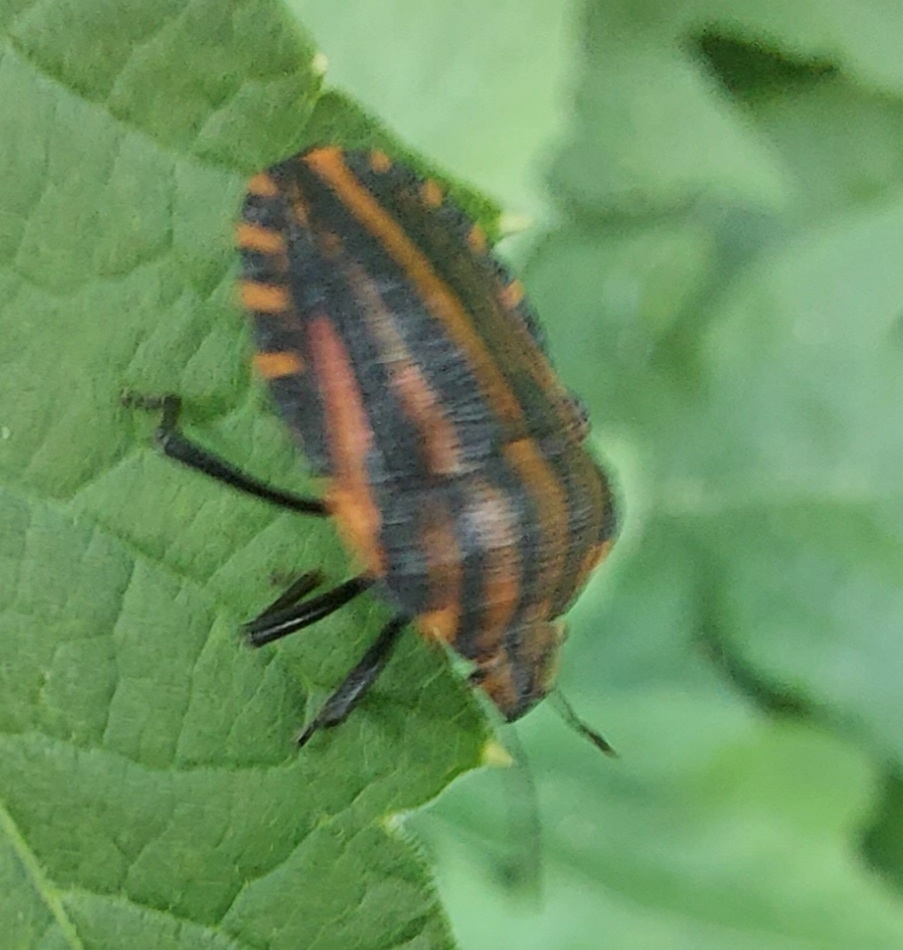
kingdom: Animalia
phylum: Arthropoda
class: Insecta
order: Hemiptera
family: Pentatomidae
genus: Graphosoma
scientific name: Graphosoma italicum
